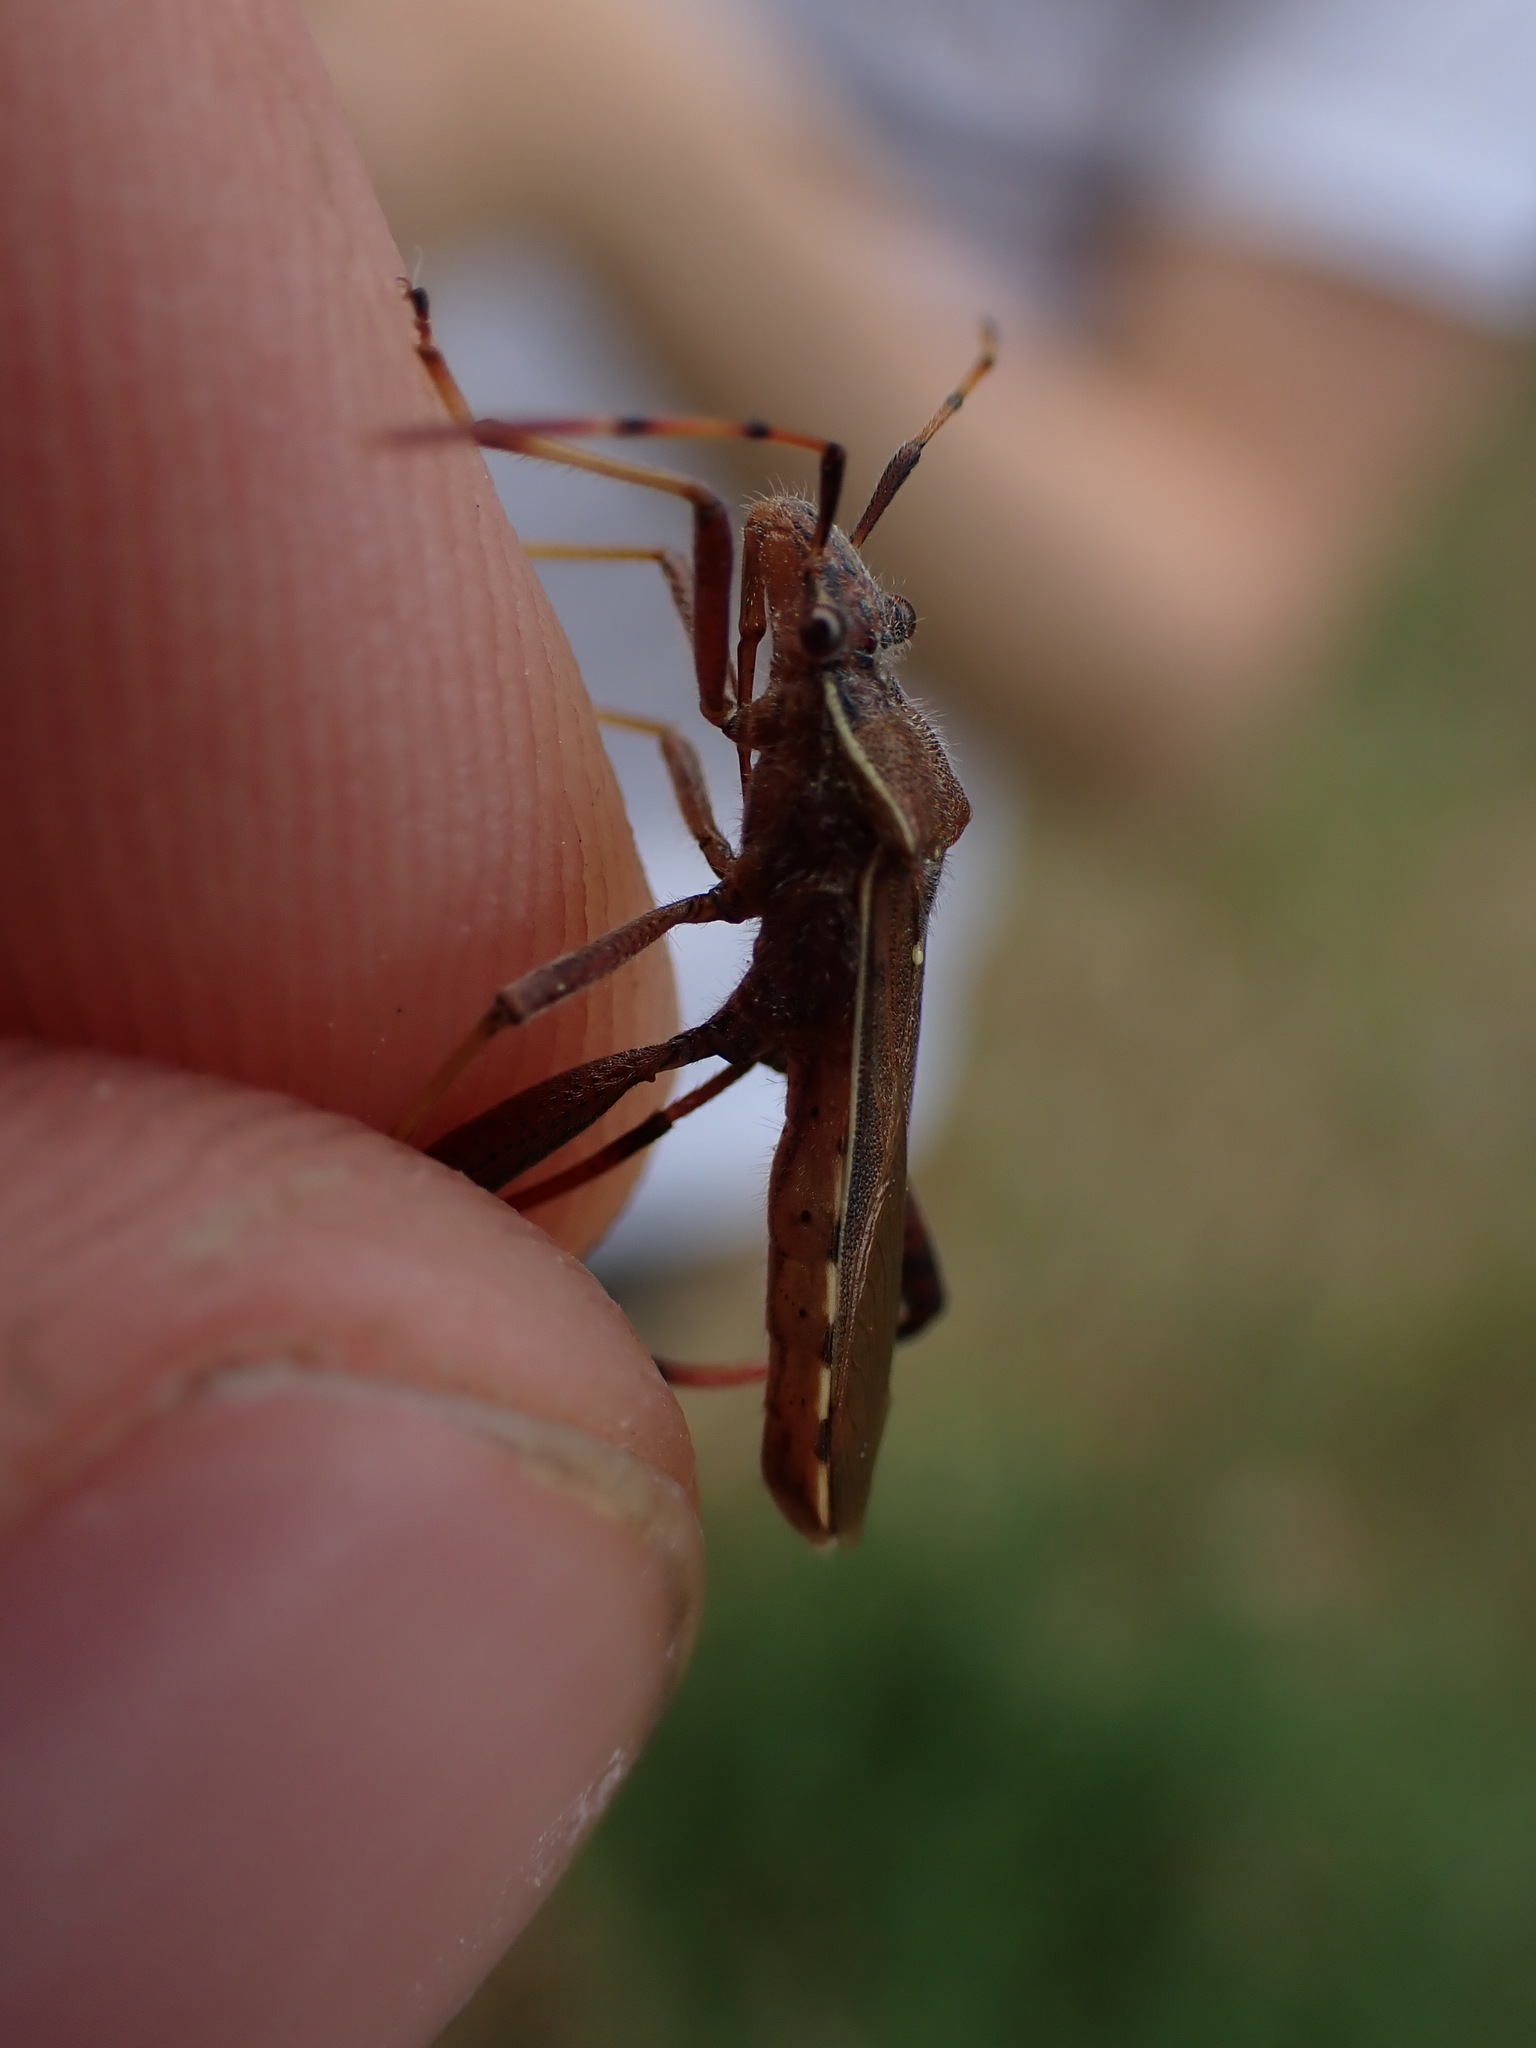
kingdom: Animalia
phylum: Arthropoda
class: Insecta
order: Hemiptera
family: Alydidae
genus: Camptopus
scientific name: Camptopus lateralis
